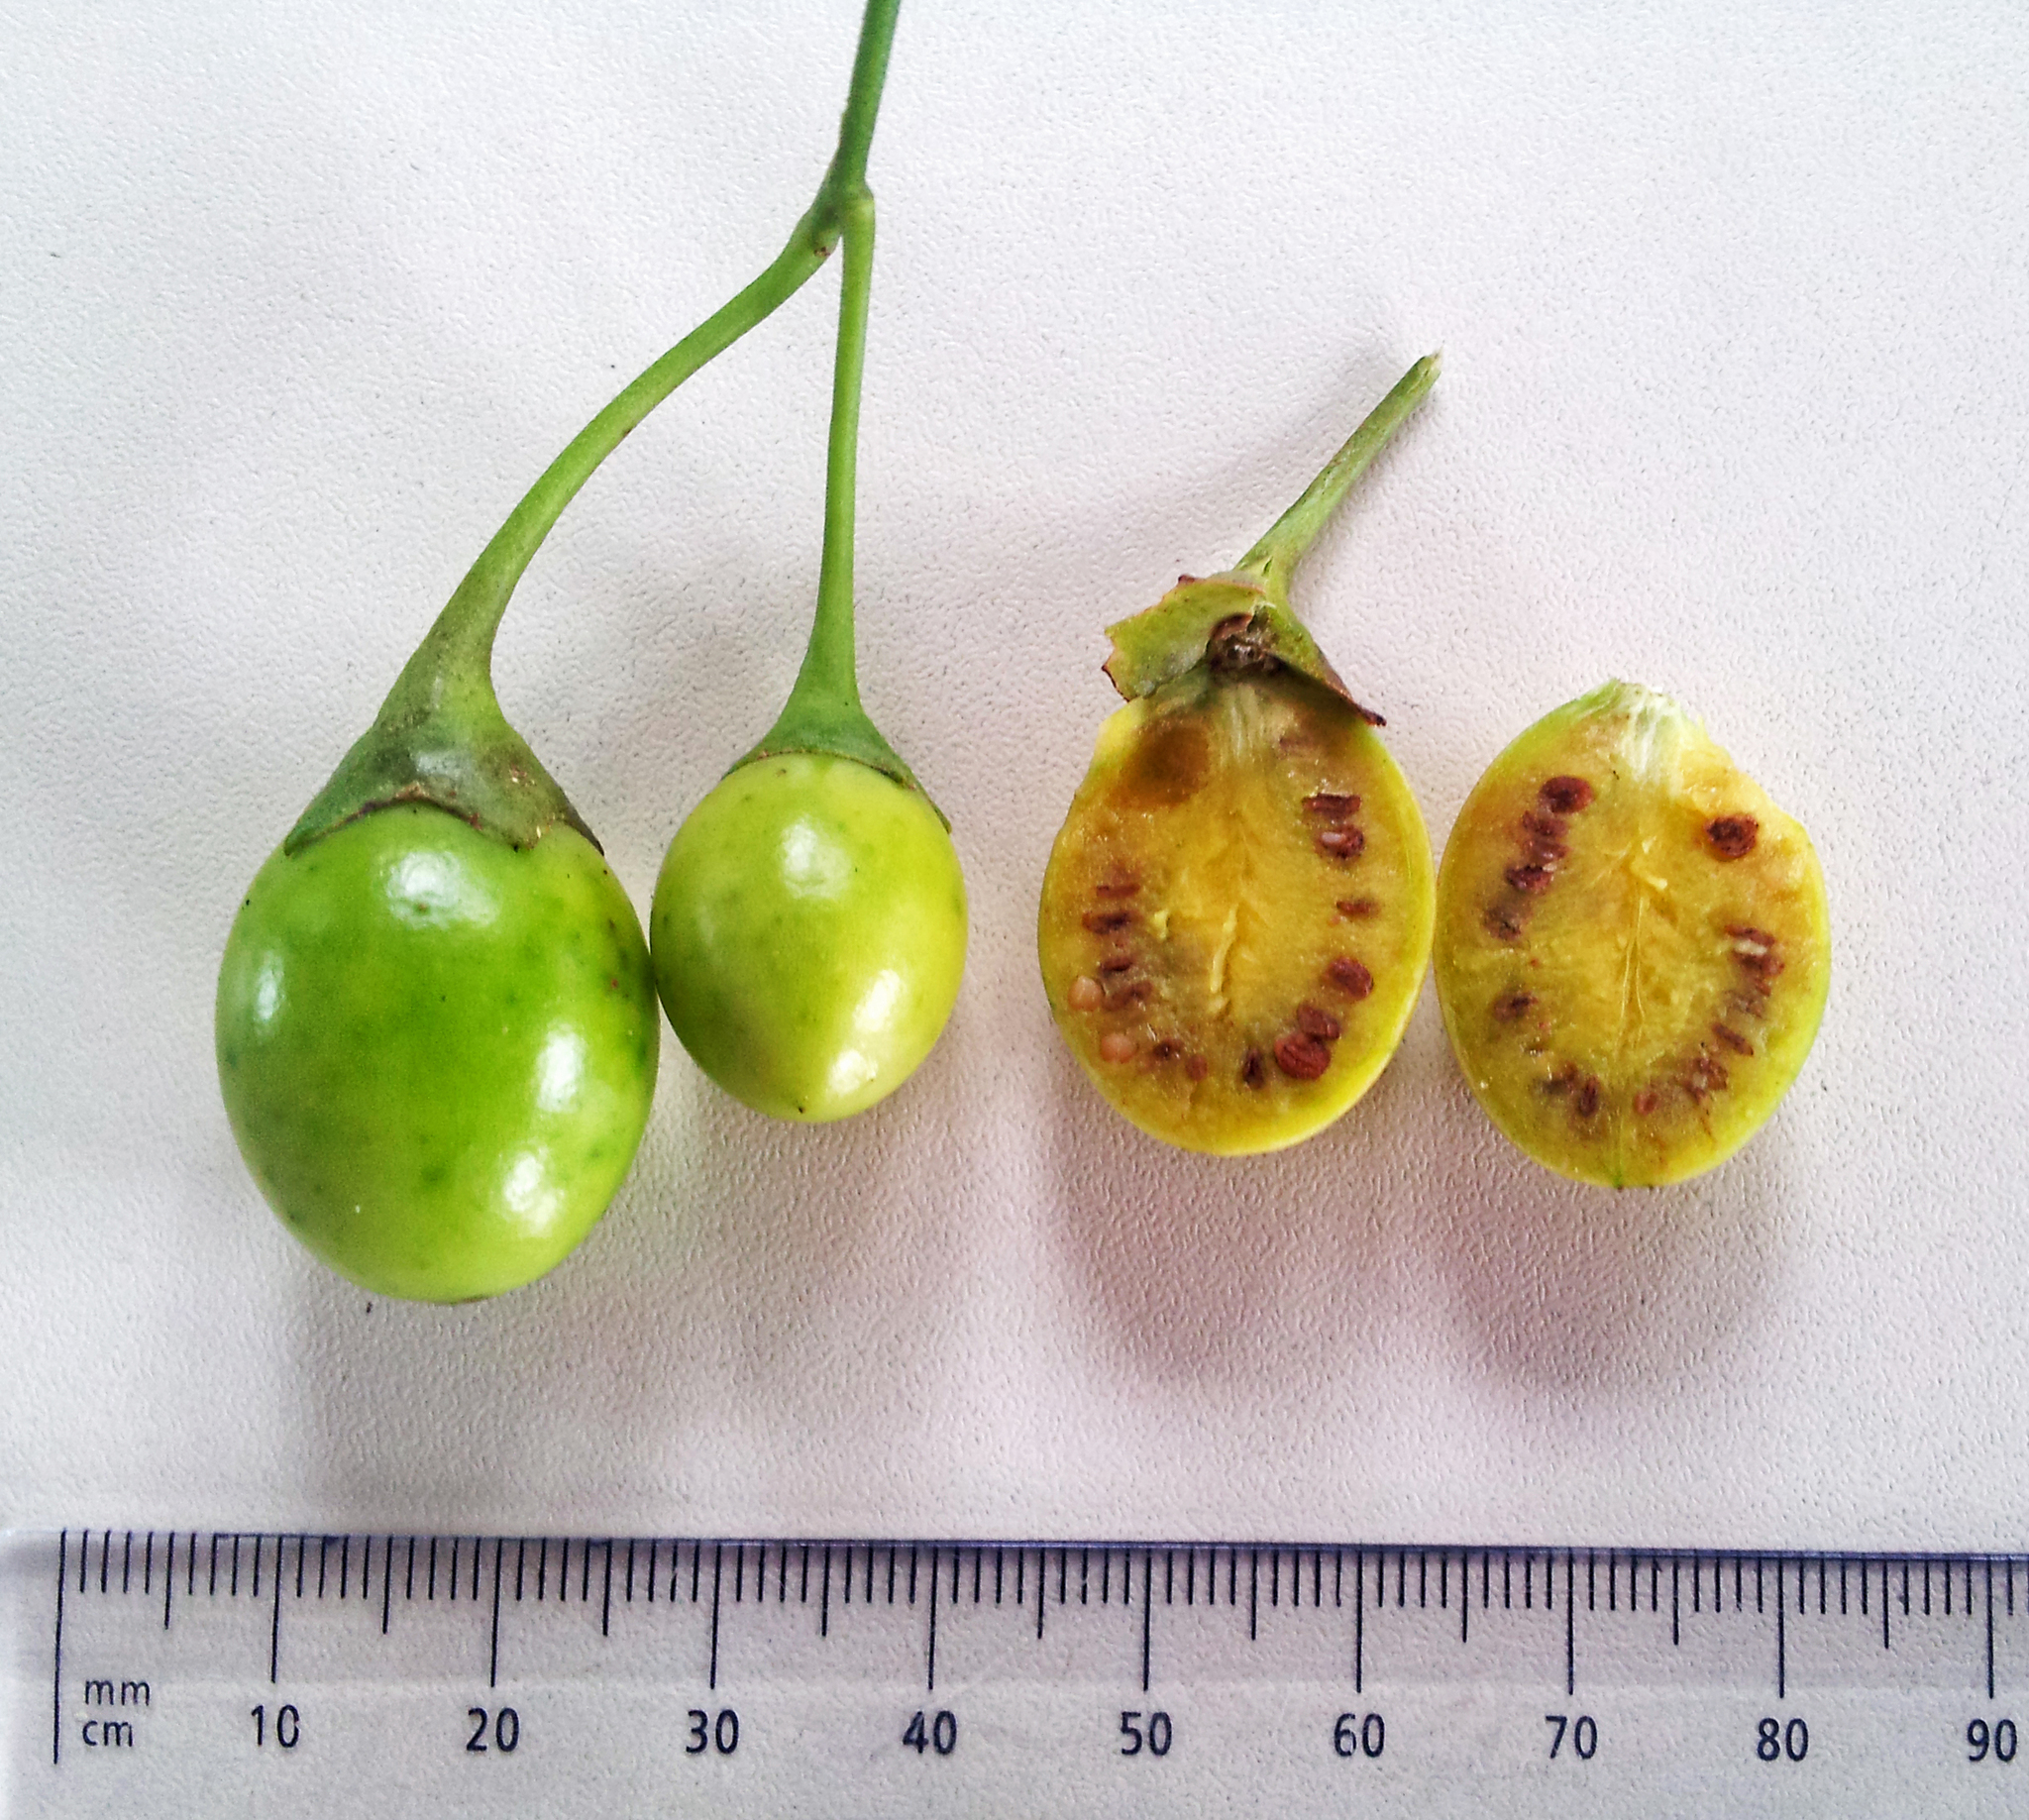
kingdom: Plantae
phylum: Tracheophyta
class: Magnoliopsida
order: Solanales
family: Solanaceae
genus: Solanum
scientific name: Solanum laciniatum
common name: Kangaroo-apple
